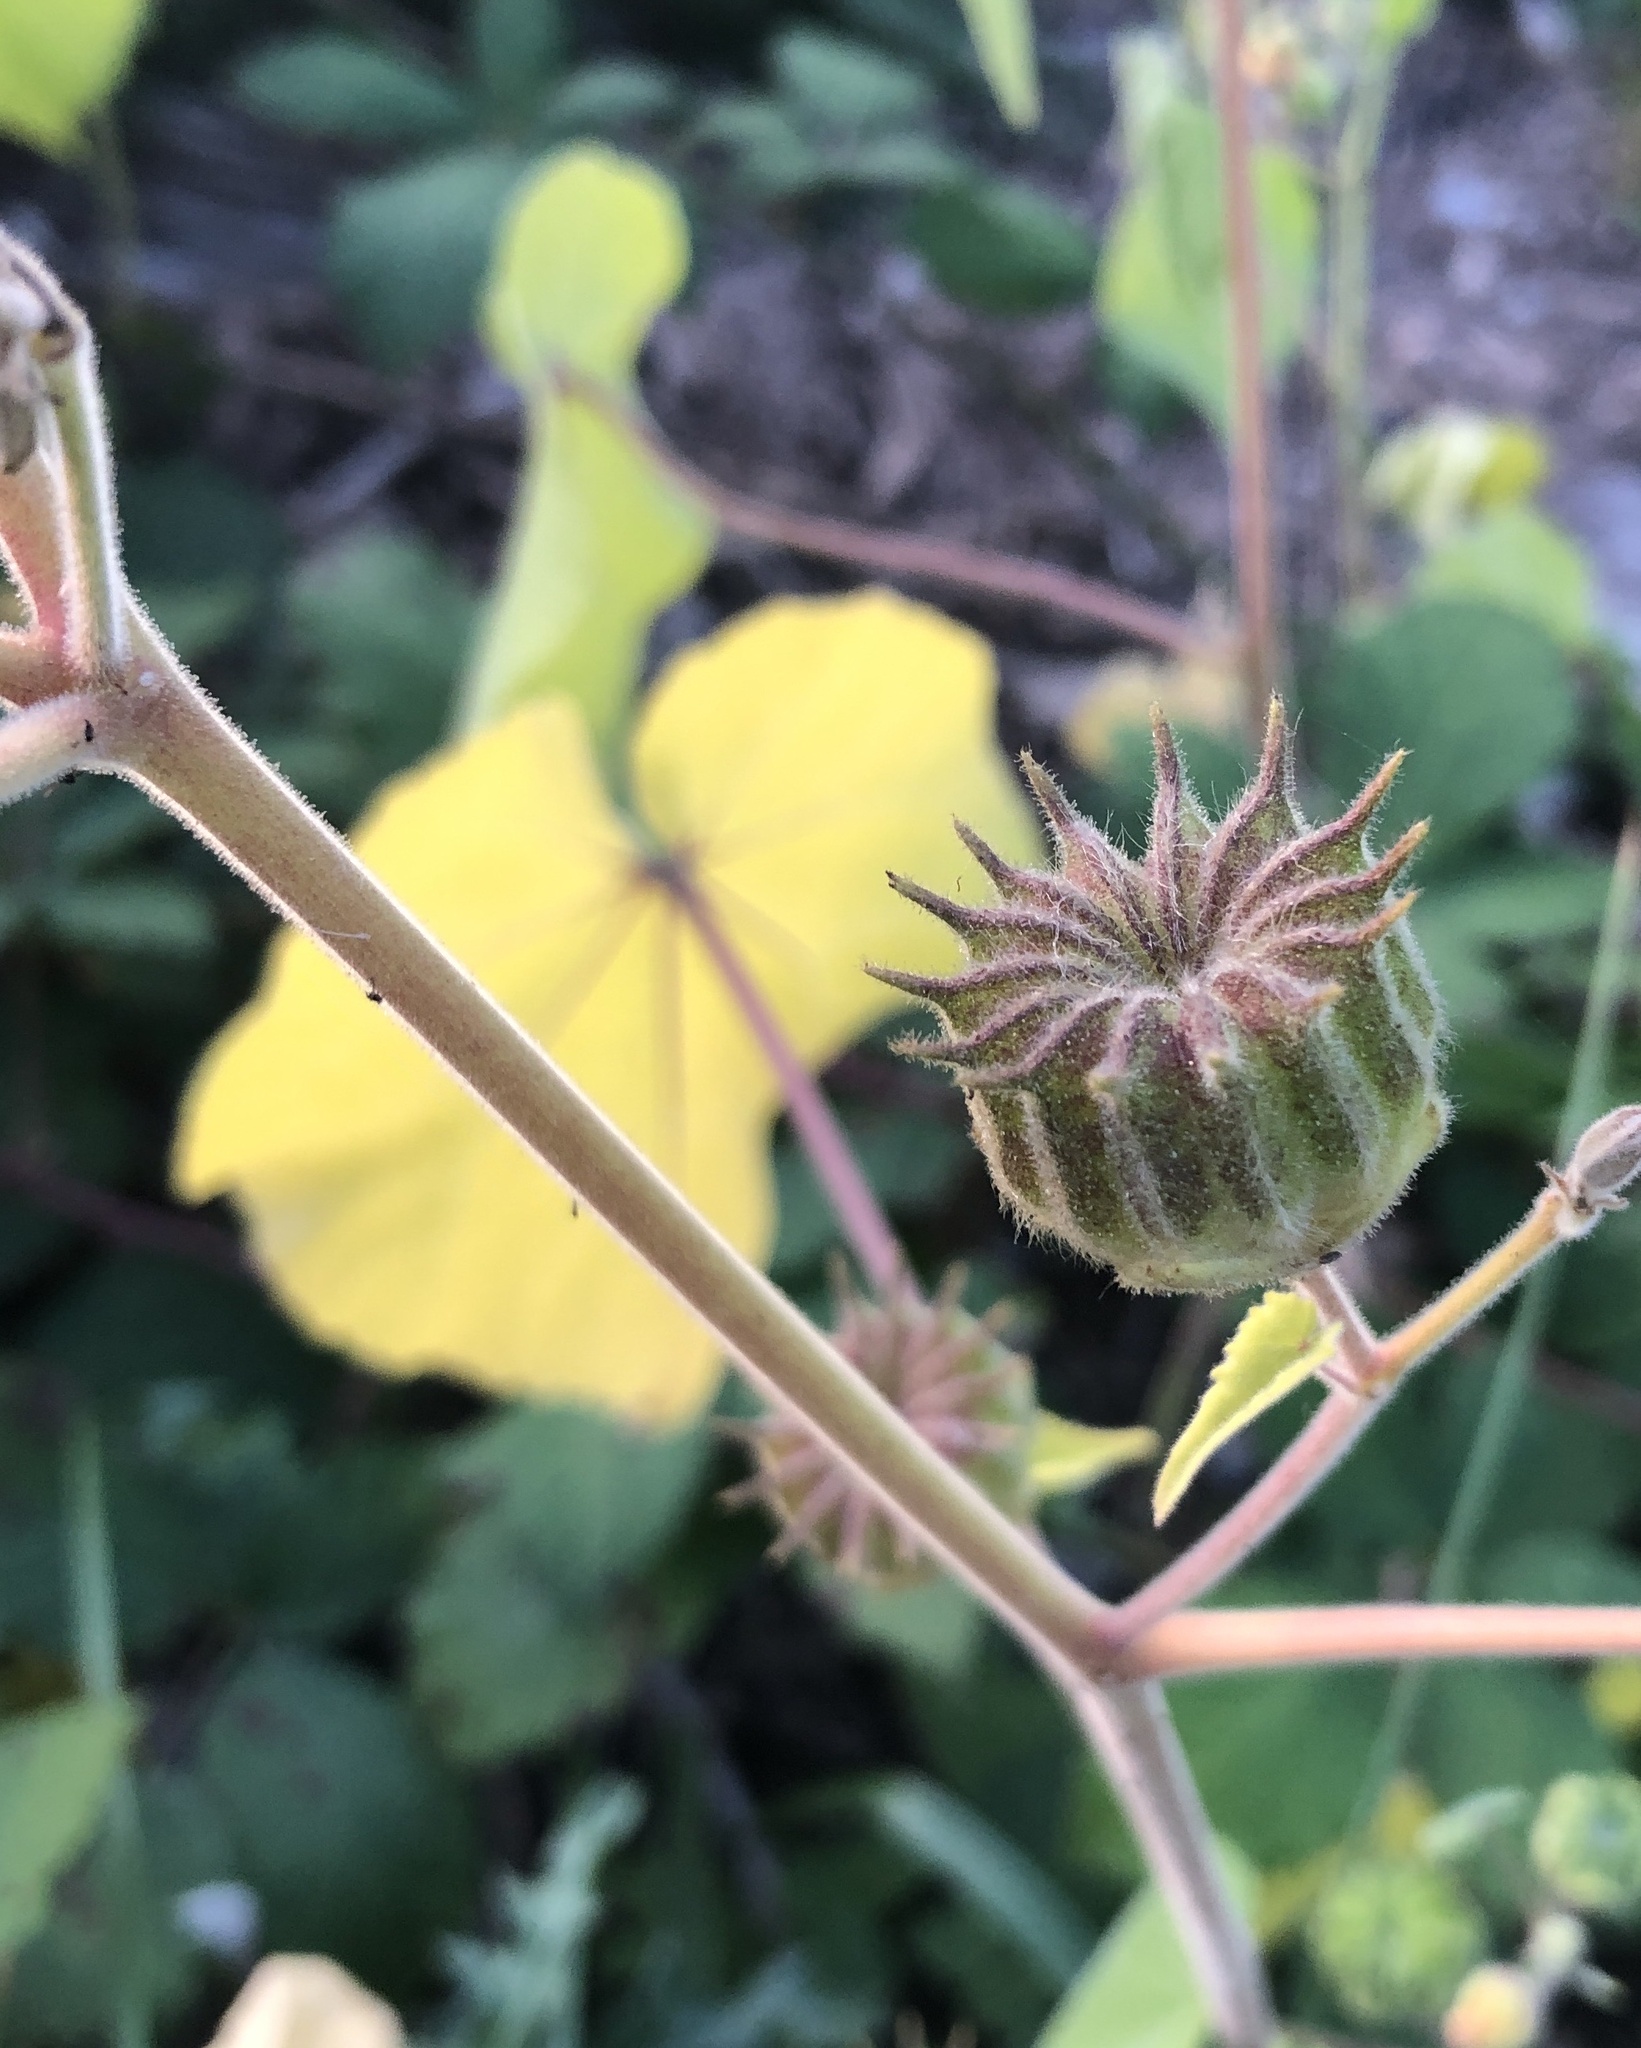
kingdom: Plantae
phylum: Tracheophyta
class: Magnoliopsida
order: Malvales
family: Malvaceae
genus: Abutilon
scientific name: Abutilon theophrasti
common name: Velvetleaf
